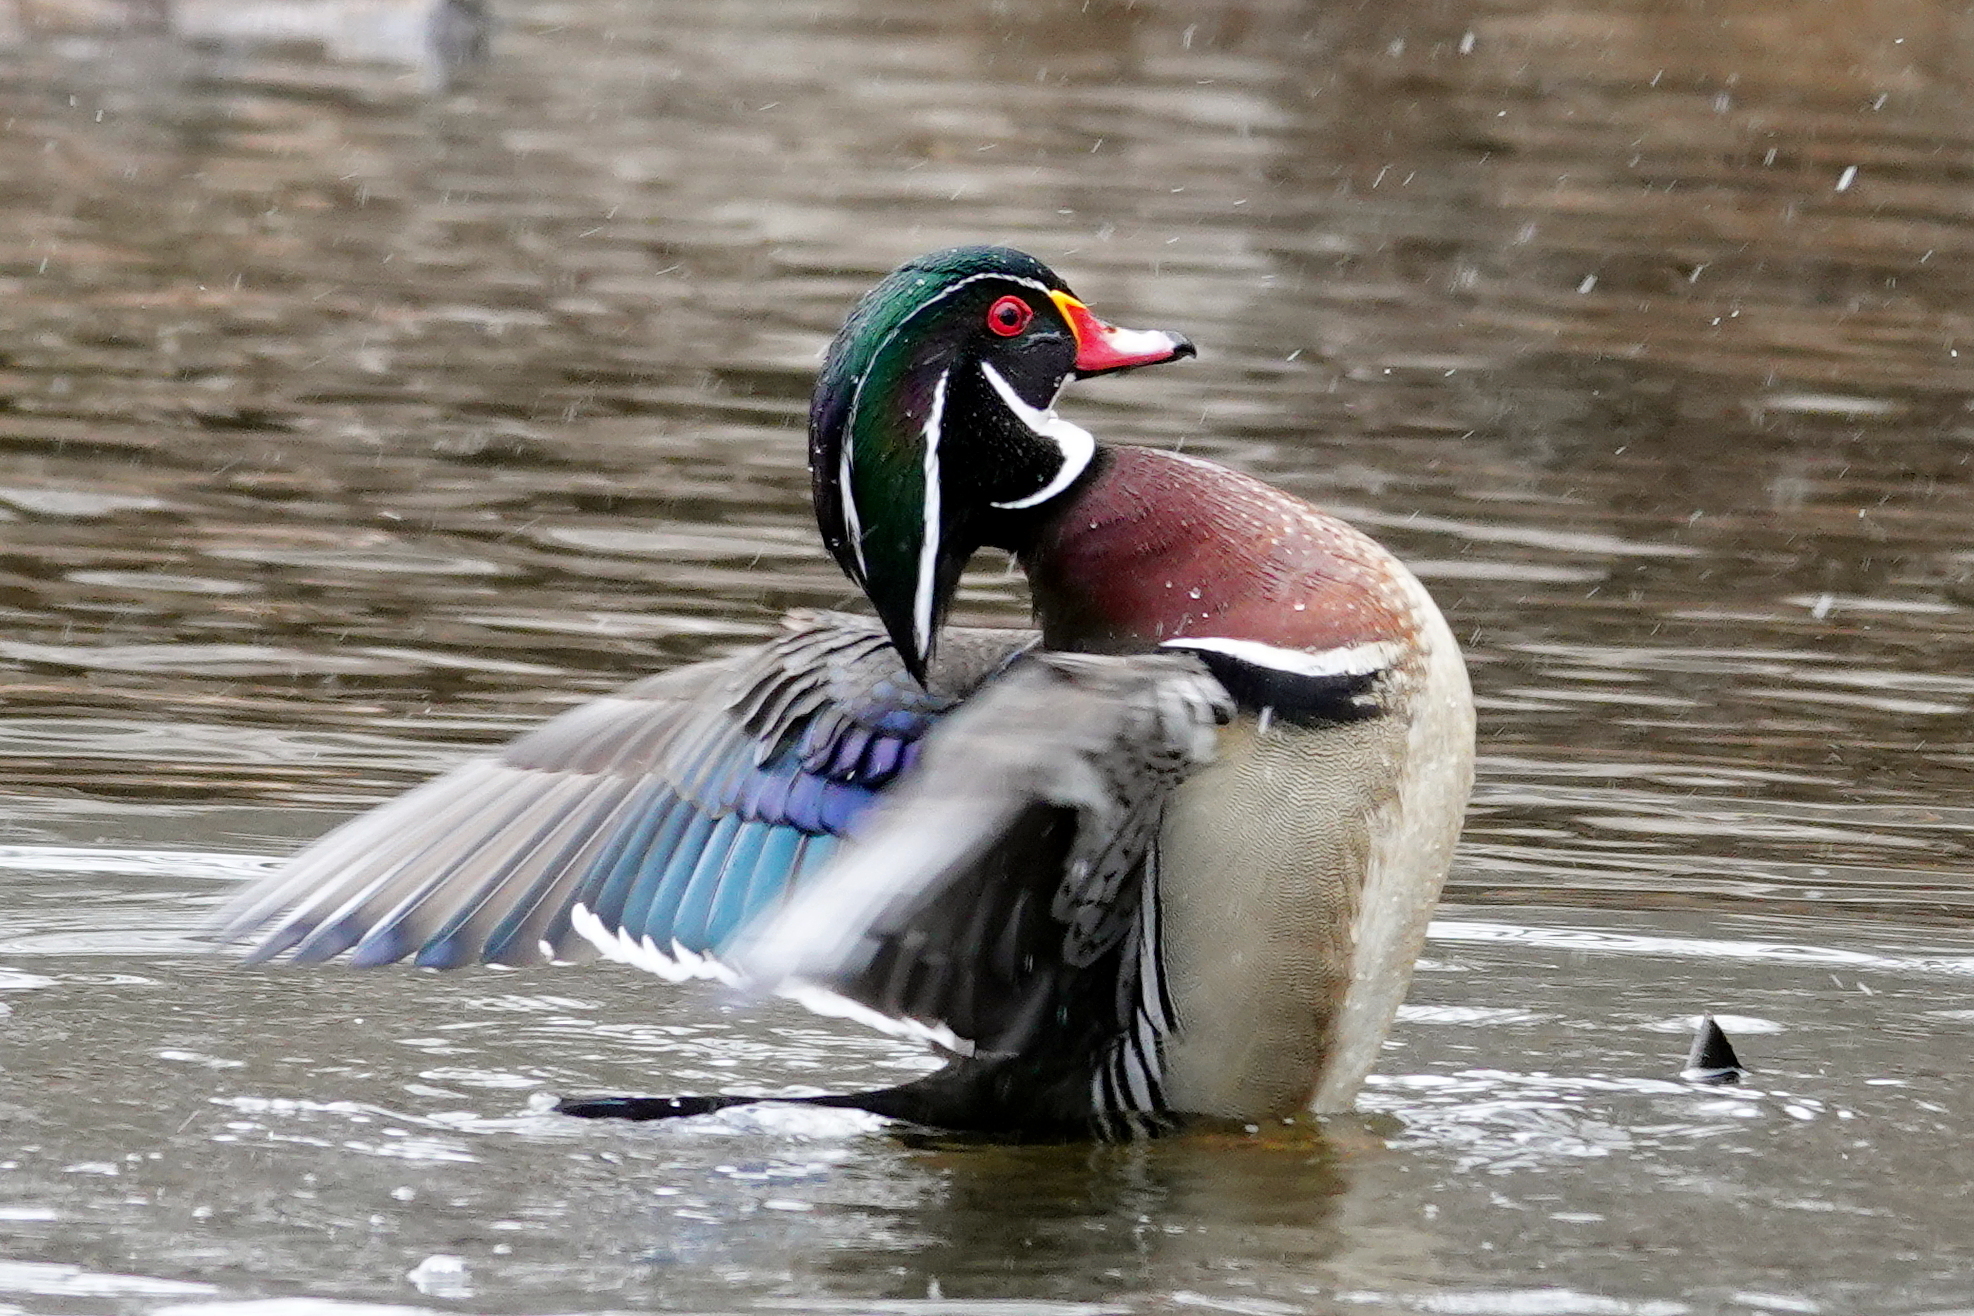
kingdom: Animalia
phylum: Chordata
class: Aves
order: Anseriformes
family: Anatidae
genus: Aix
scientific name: Aix sponsa
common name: Wood duck
